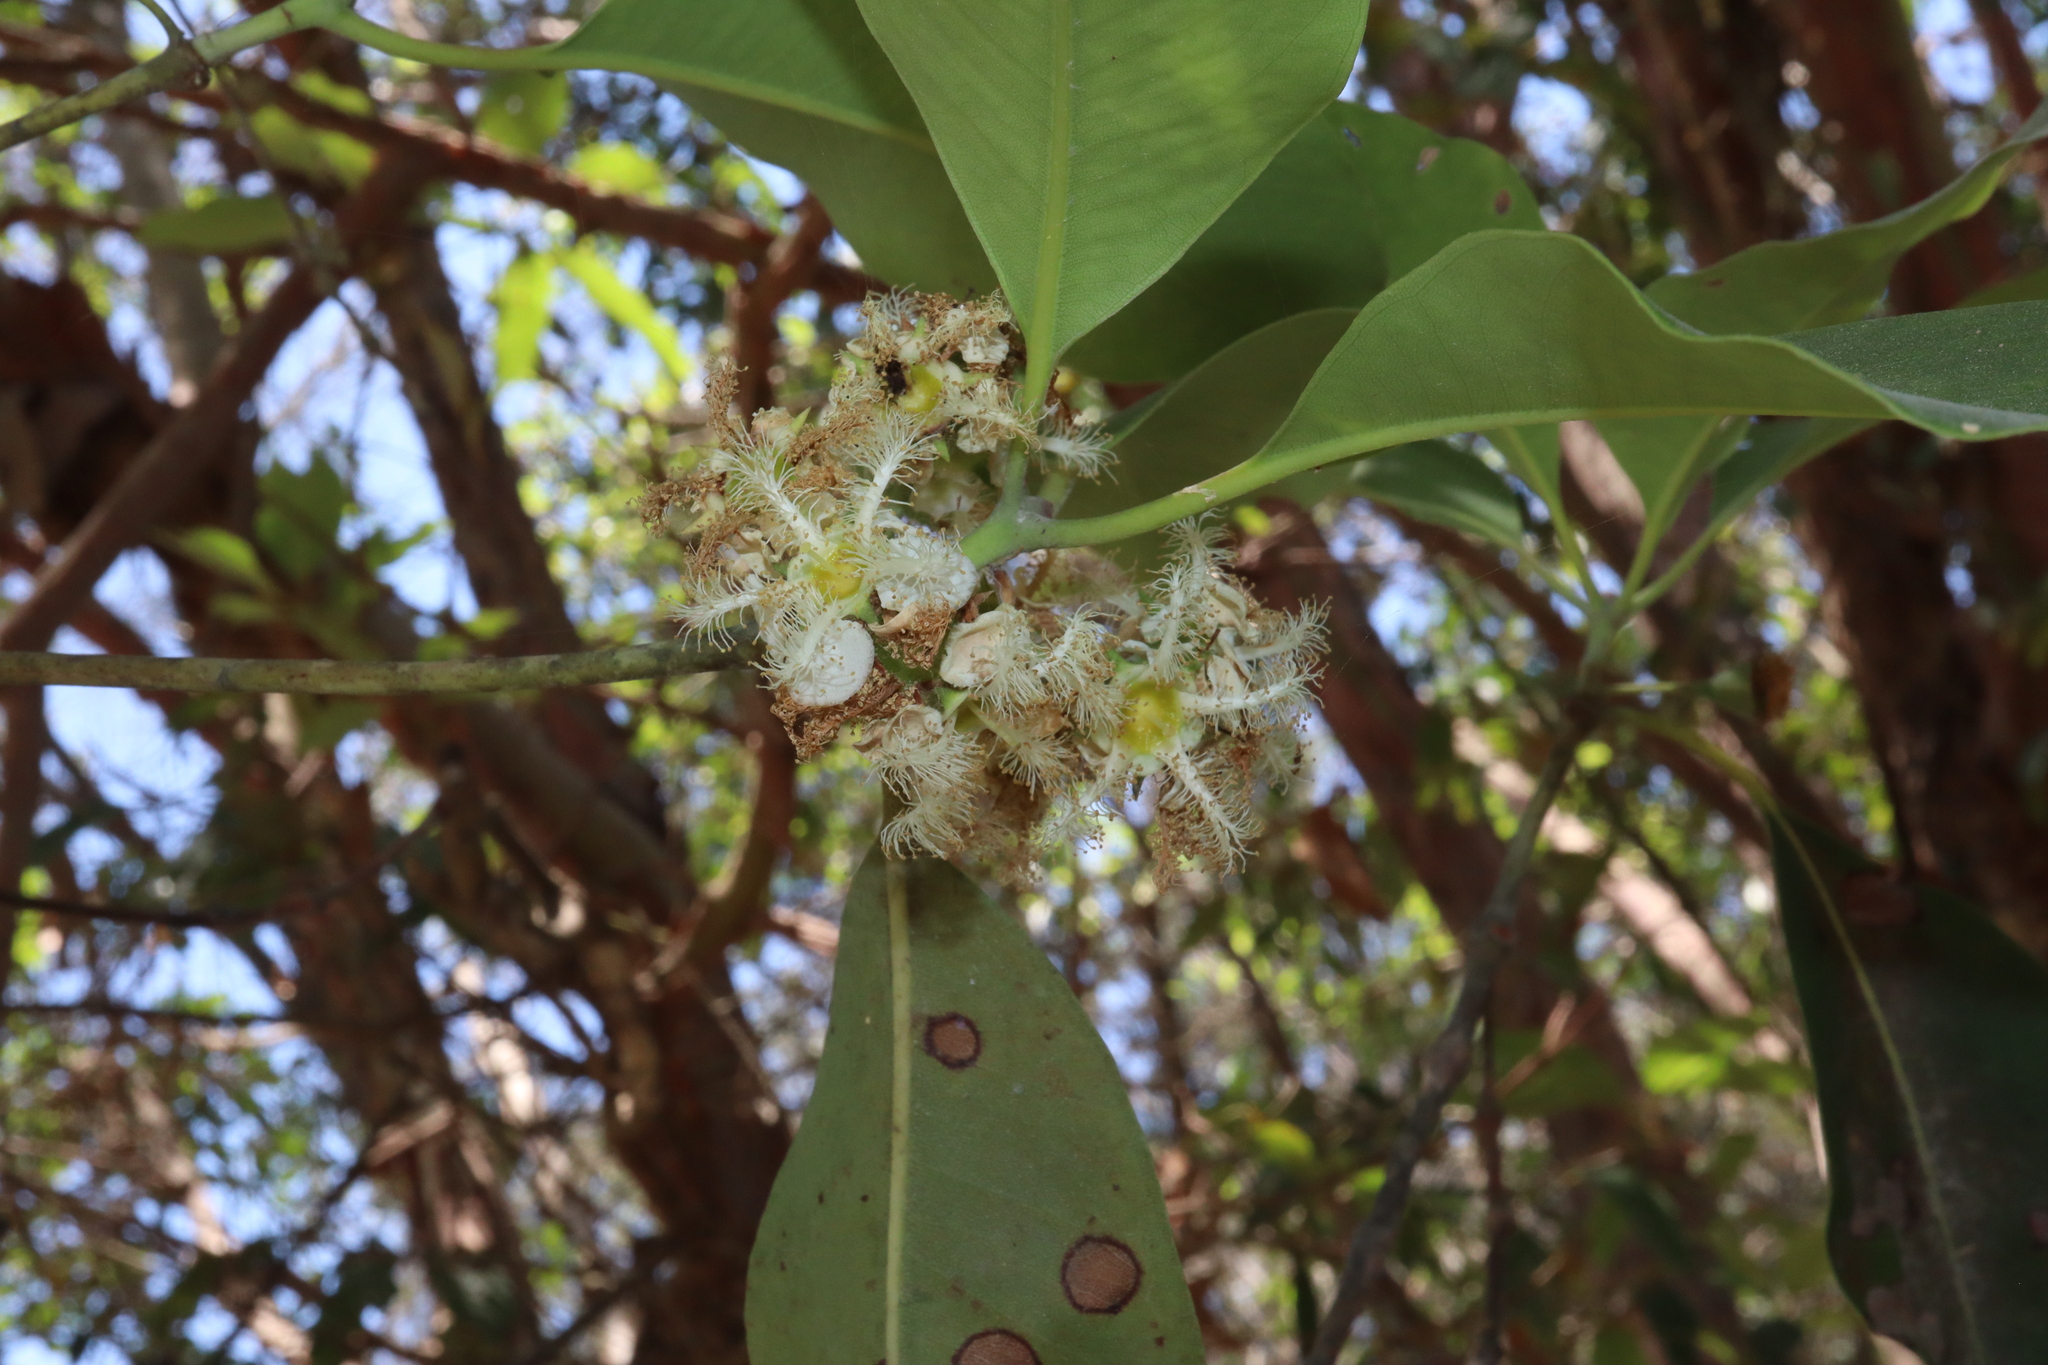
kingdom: Plantae
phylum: Tracheophyta
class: Magnoliopsida
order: Myrtales
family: Myrtaceae
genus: Lophostemon
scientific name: Lophostemon confertus
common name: Brisbane box
